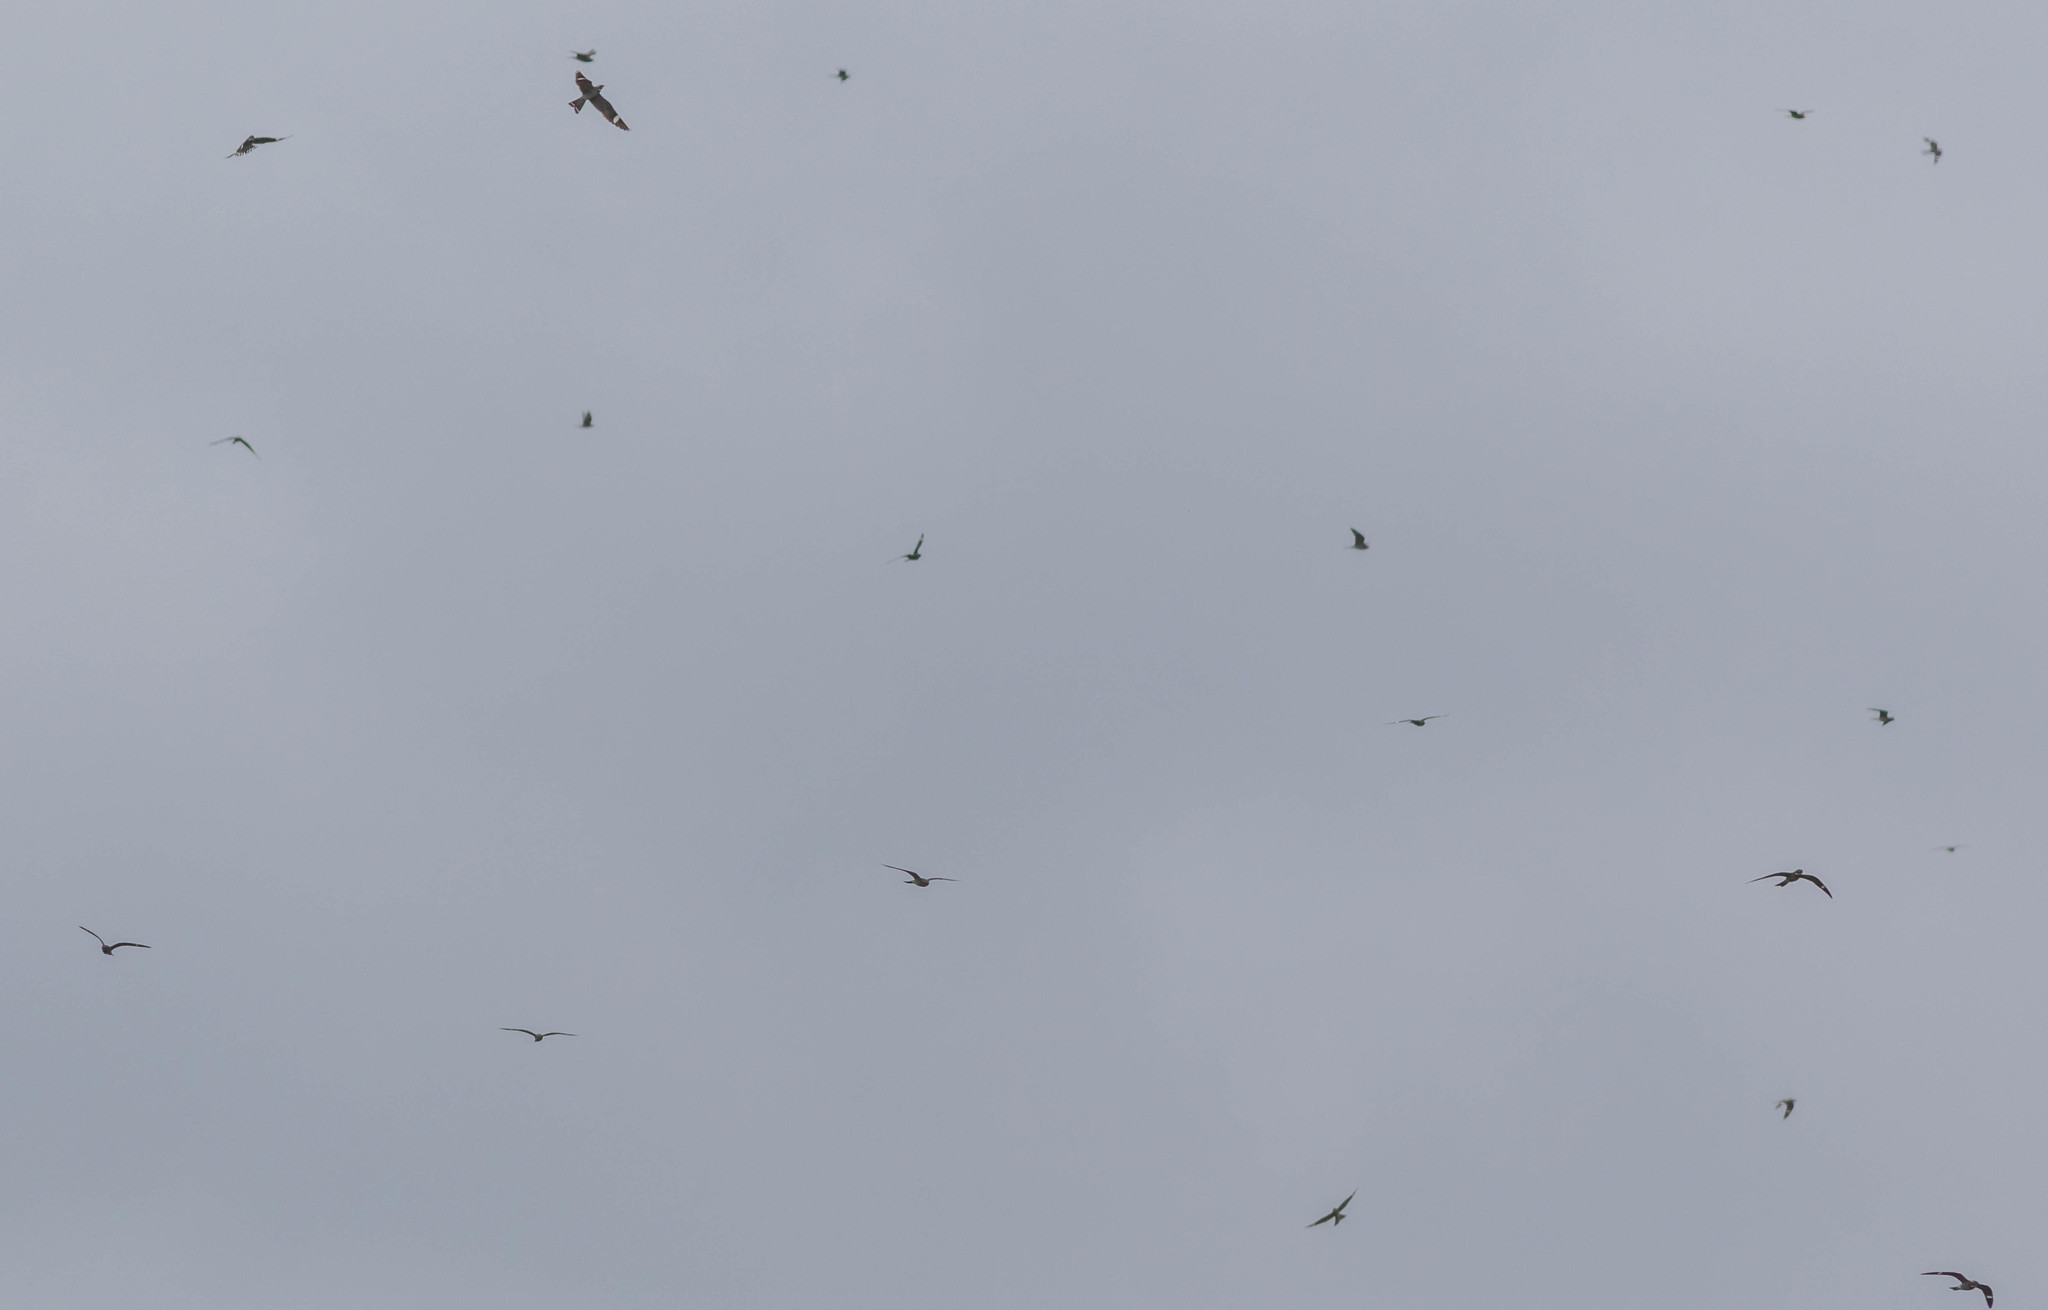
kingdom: Animalia
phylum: Chordata
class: Aves
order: Caprimulgiformes
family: Caprimulgidae
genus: Chordeiles
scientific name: Chordeiles minor
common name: Common nighthawk
